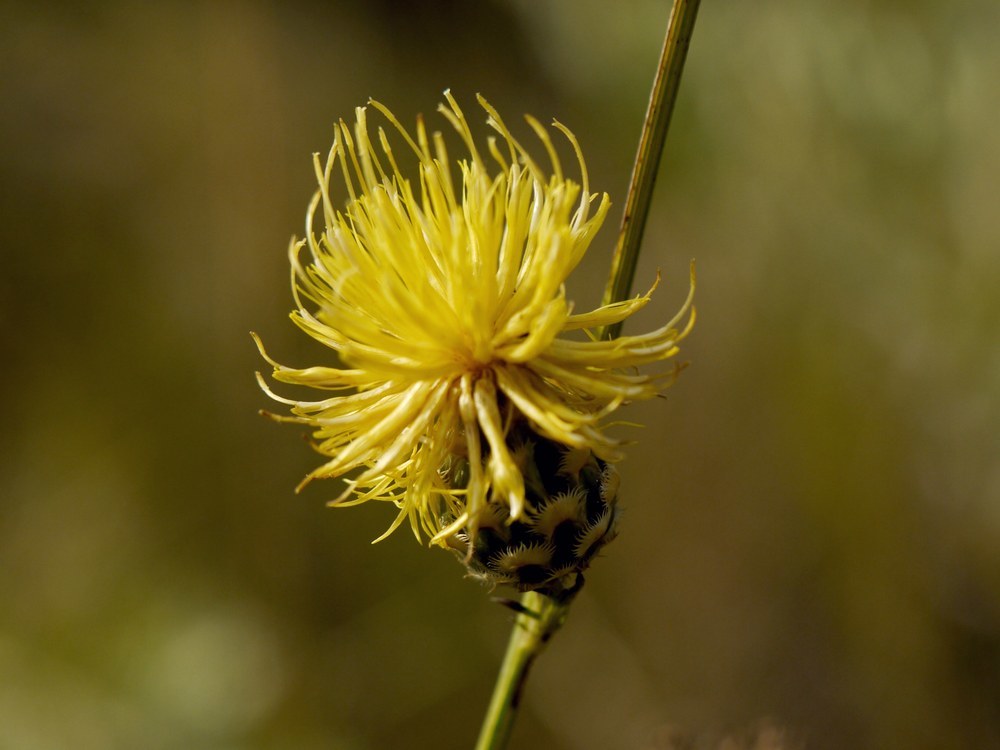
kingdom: Plantae
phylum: Tracheophyta
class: Magnoliopsida
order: Asterales
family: Asteraceae
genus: Centaurea
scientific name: Centaurea orientalis
